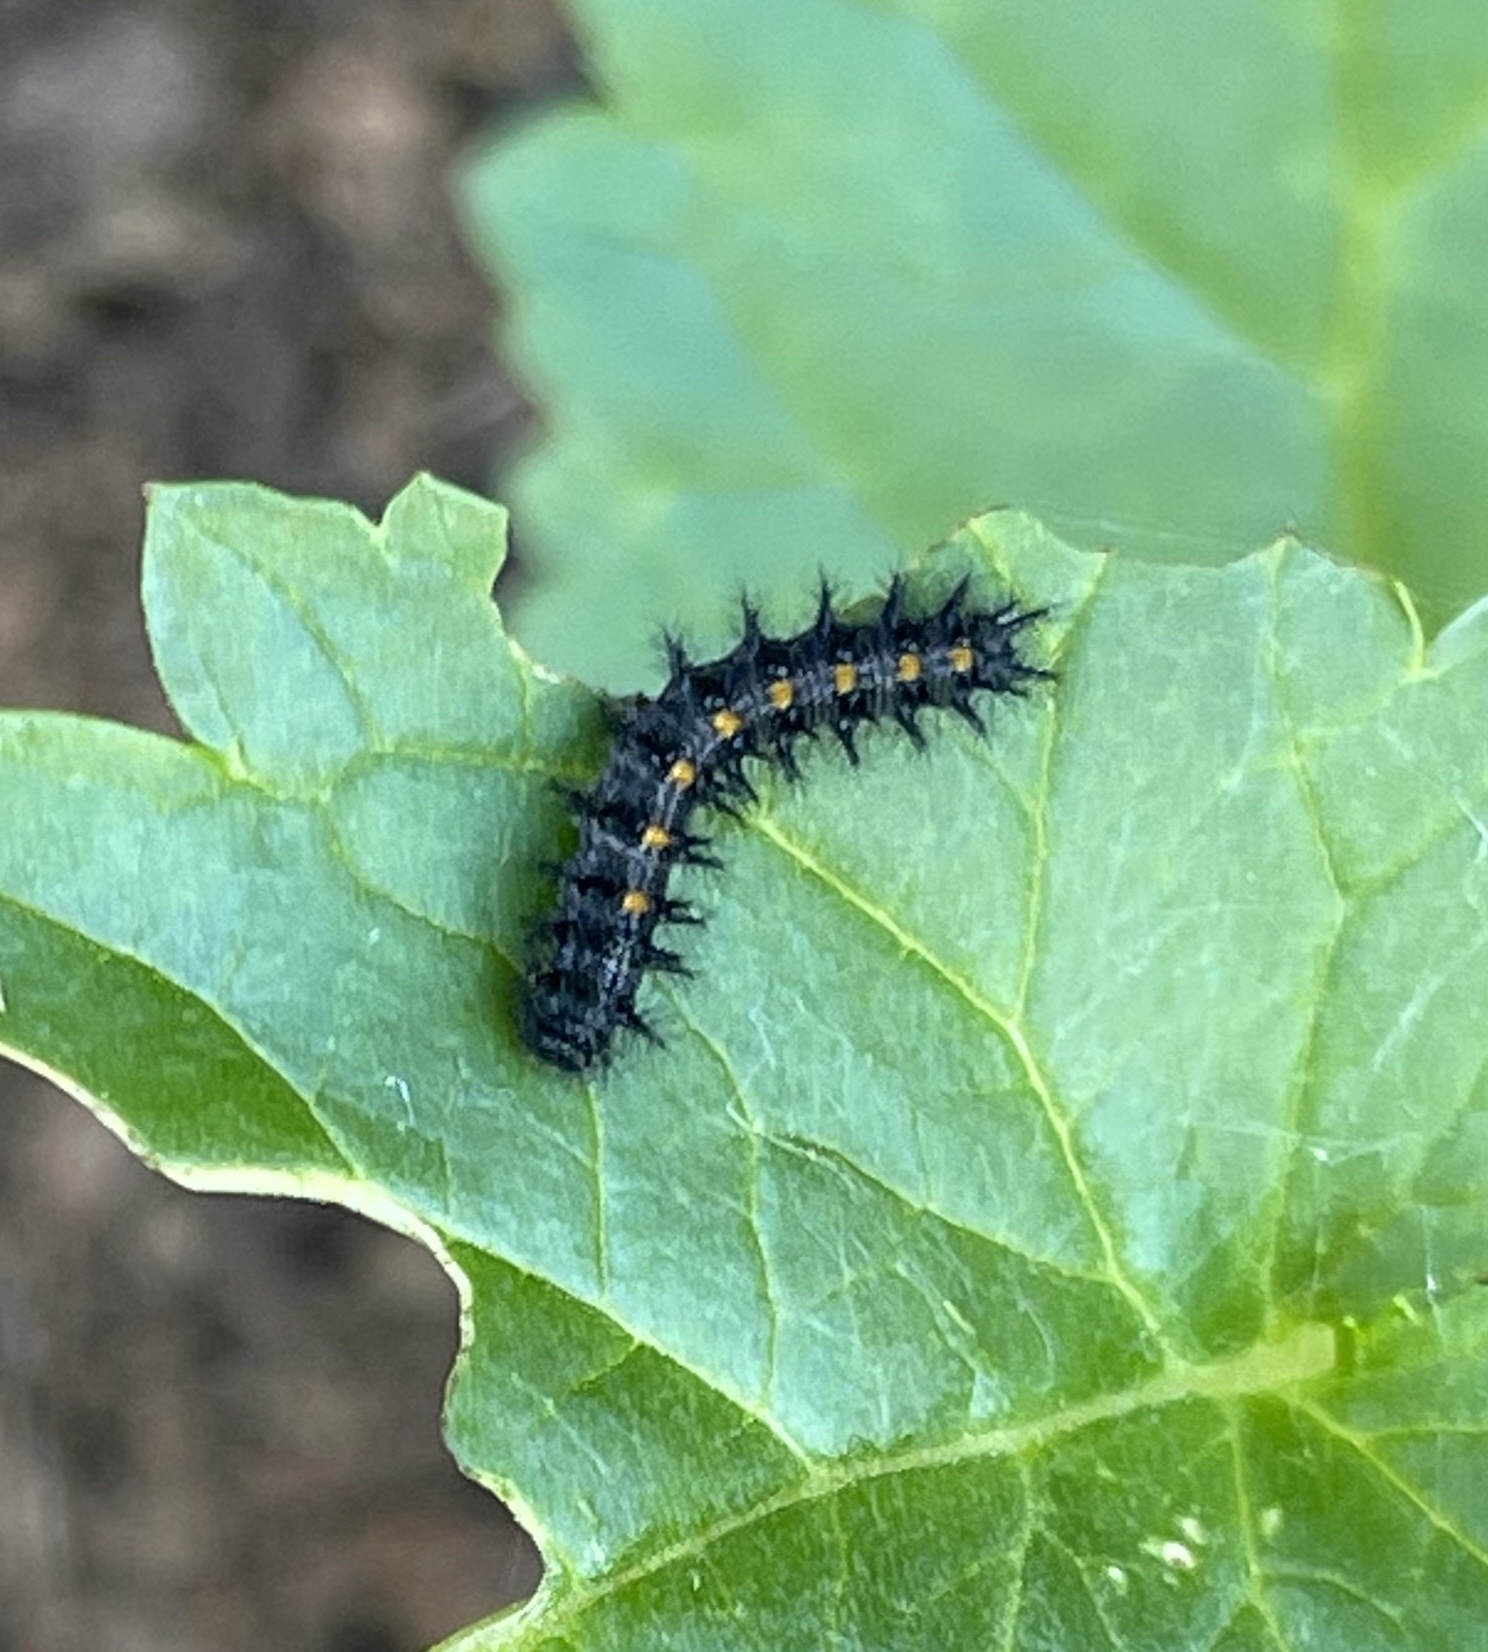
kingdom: Animalia
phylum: Arthropoda
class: Insecta
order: Lepidoptera
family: Nymphalidae
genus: Occidryas
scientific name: Occidryas chalcedona
